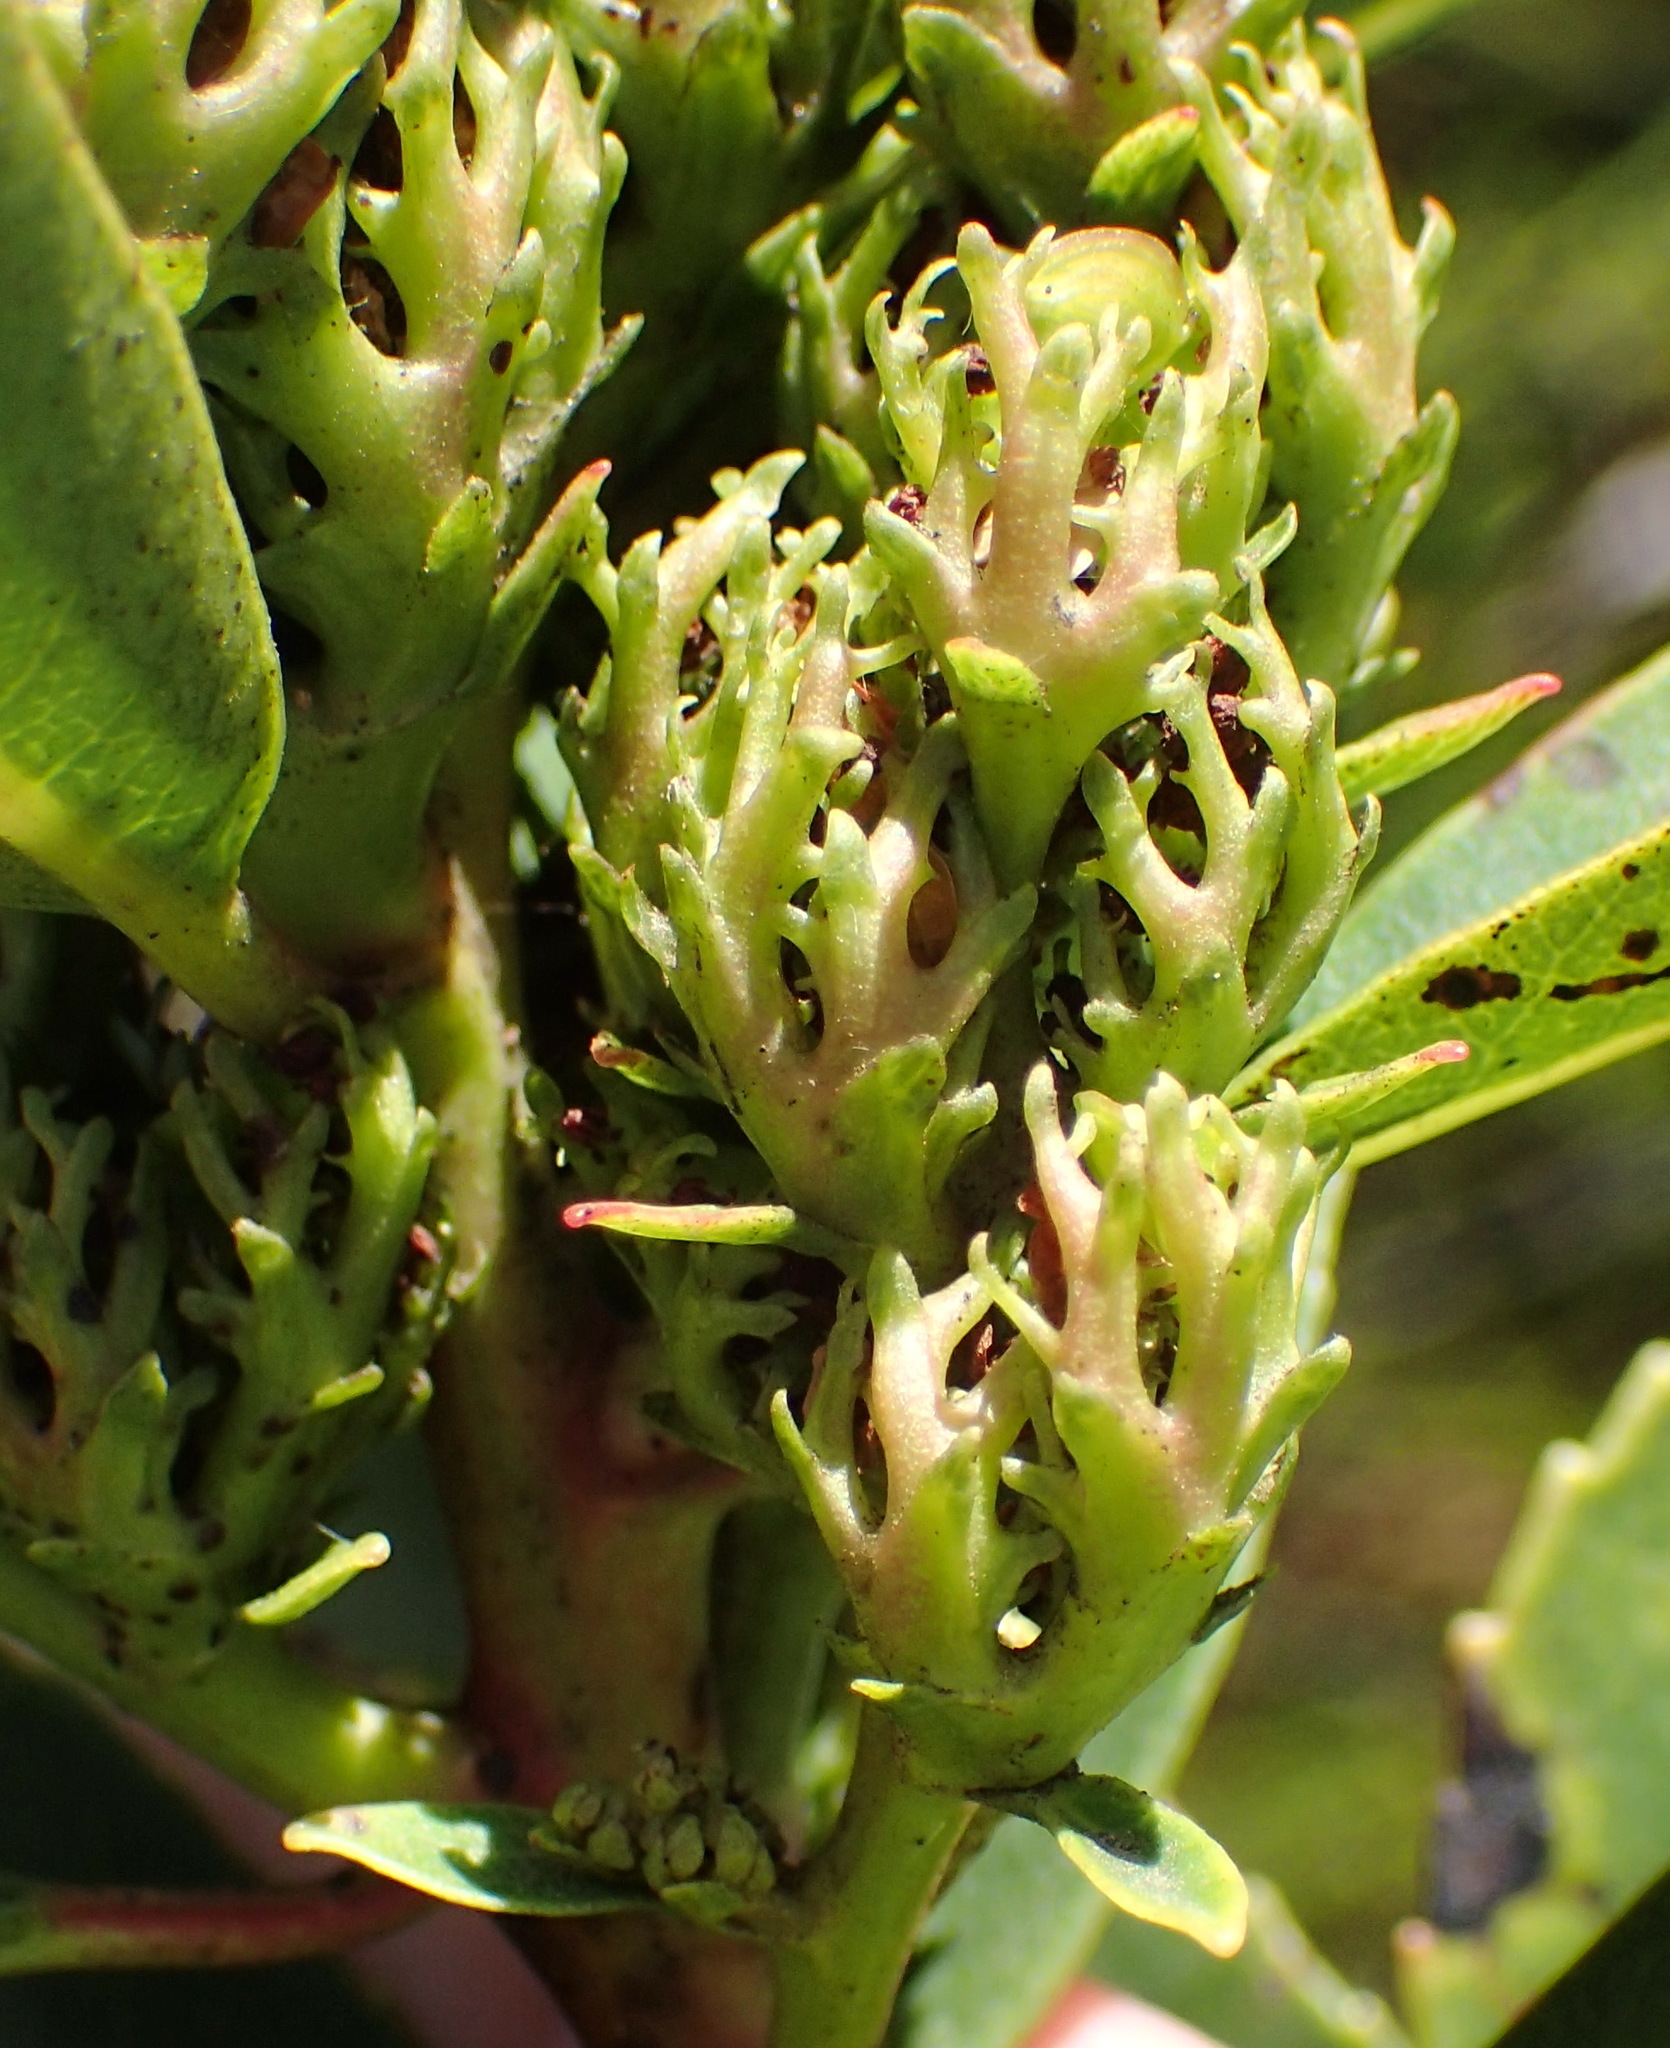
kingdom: Plantae
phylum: Tracheophyta
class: Magnoliopsida
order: Sapindales
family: Anacardiaceae
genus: Laurophyllus
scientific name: Laurophyllus capensis
